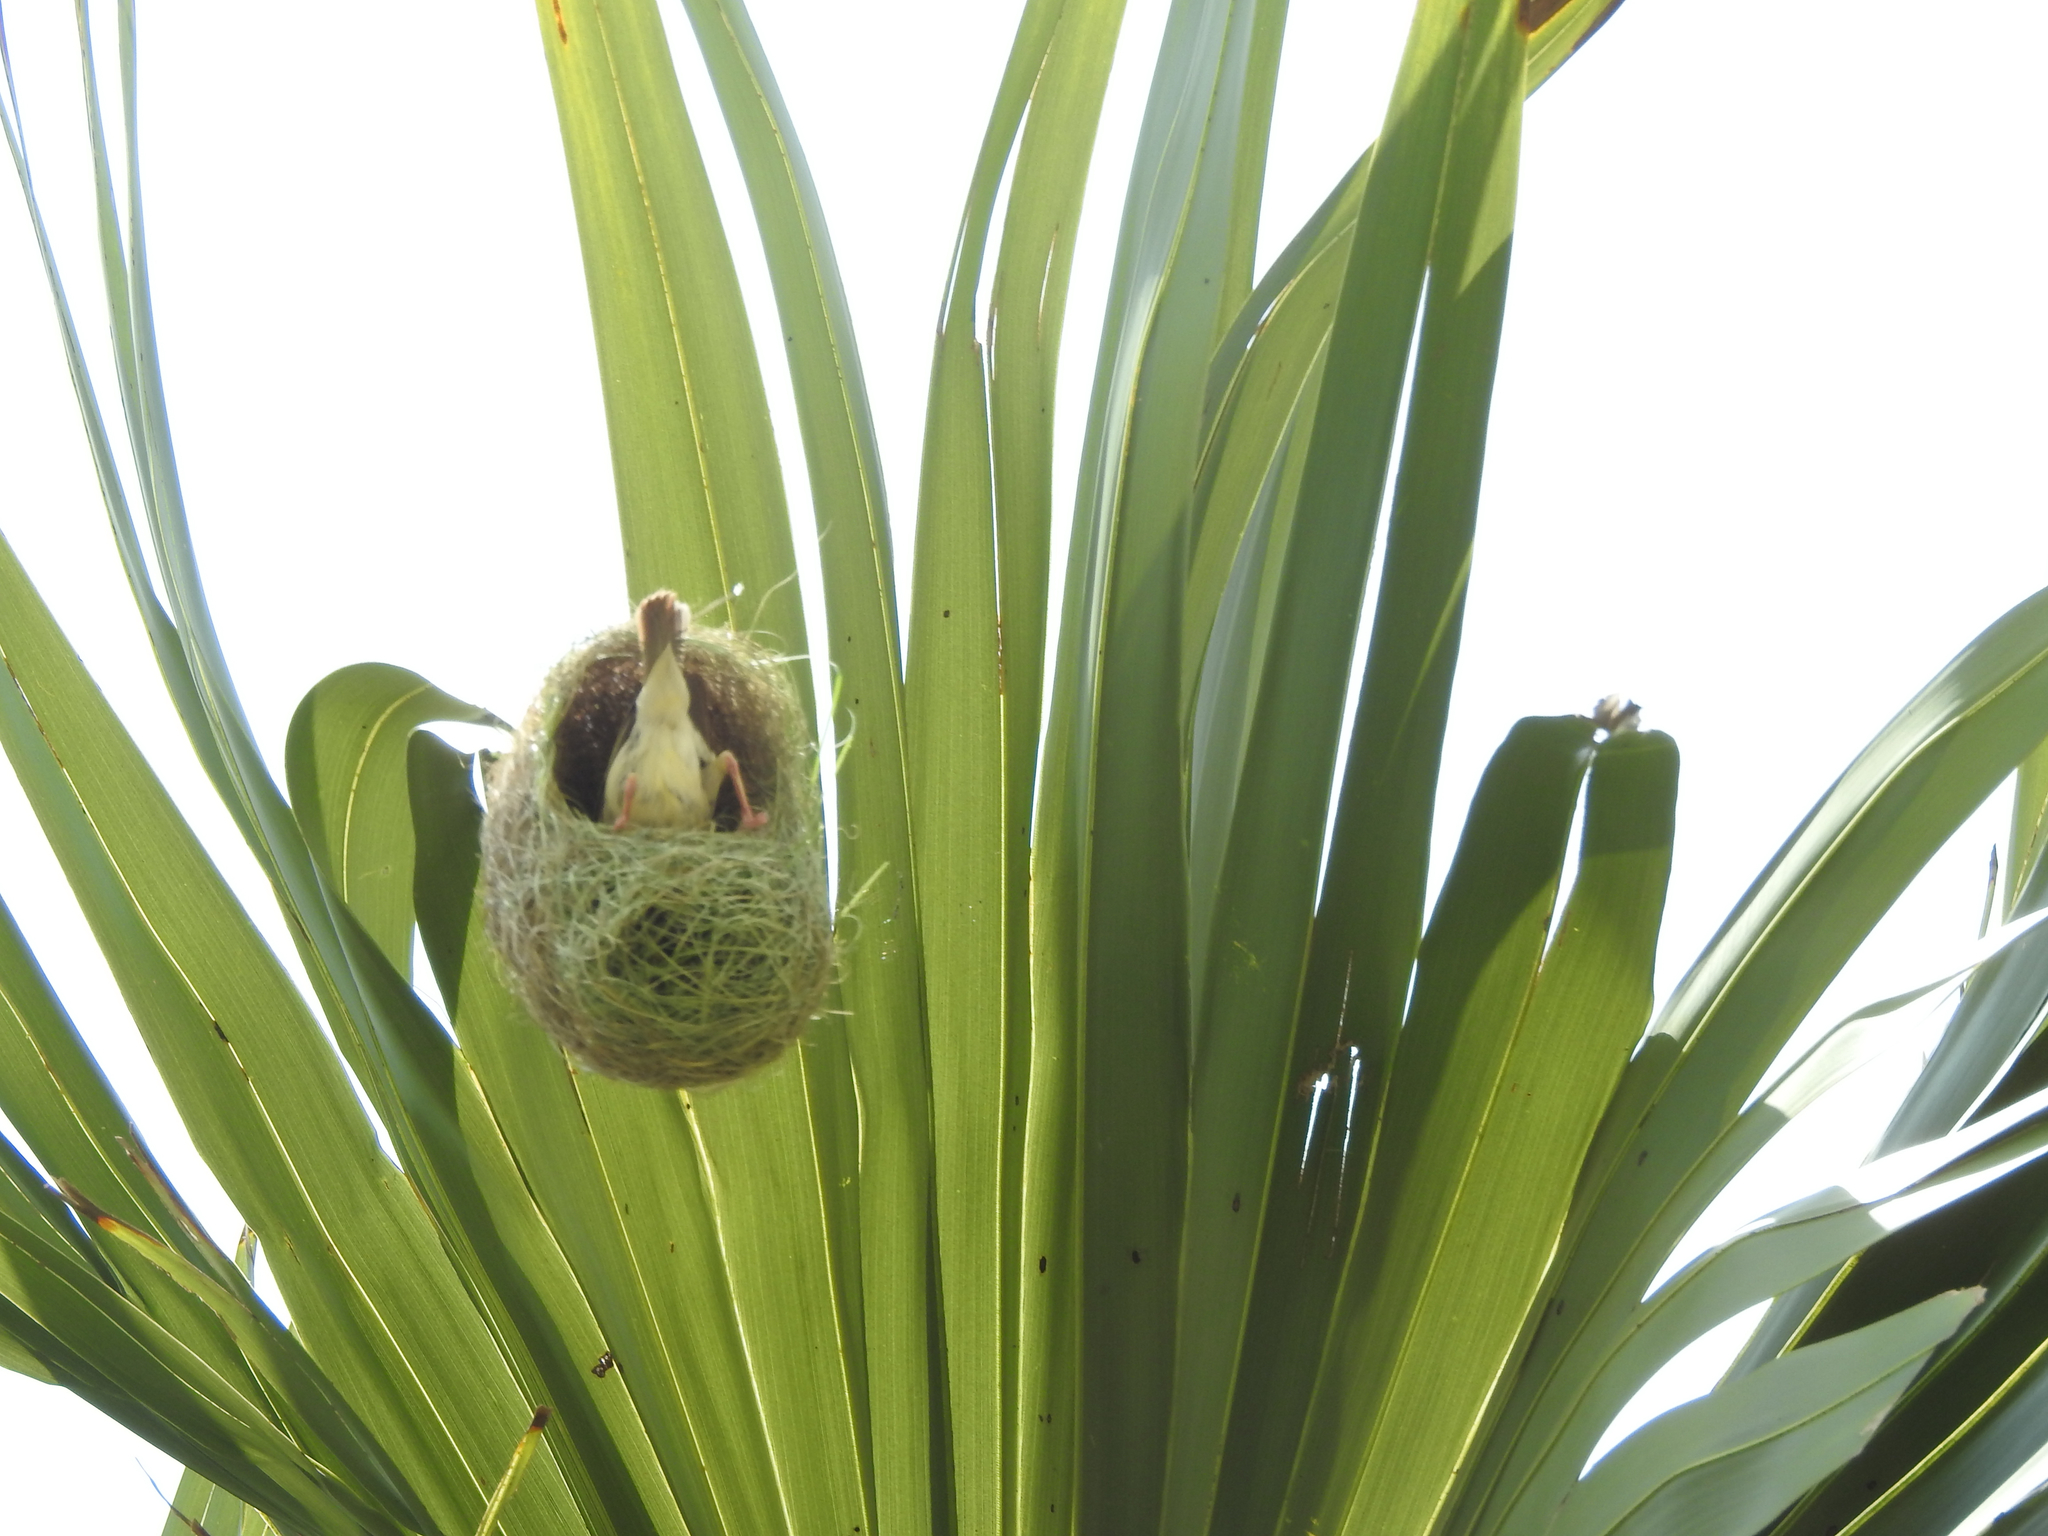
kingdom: Animalia
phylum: Chordata
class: Aves
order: Passeriformes
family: Ploceidae
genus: Ploceus
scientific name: Ploceus philippinus
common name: Baya weaver
